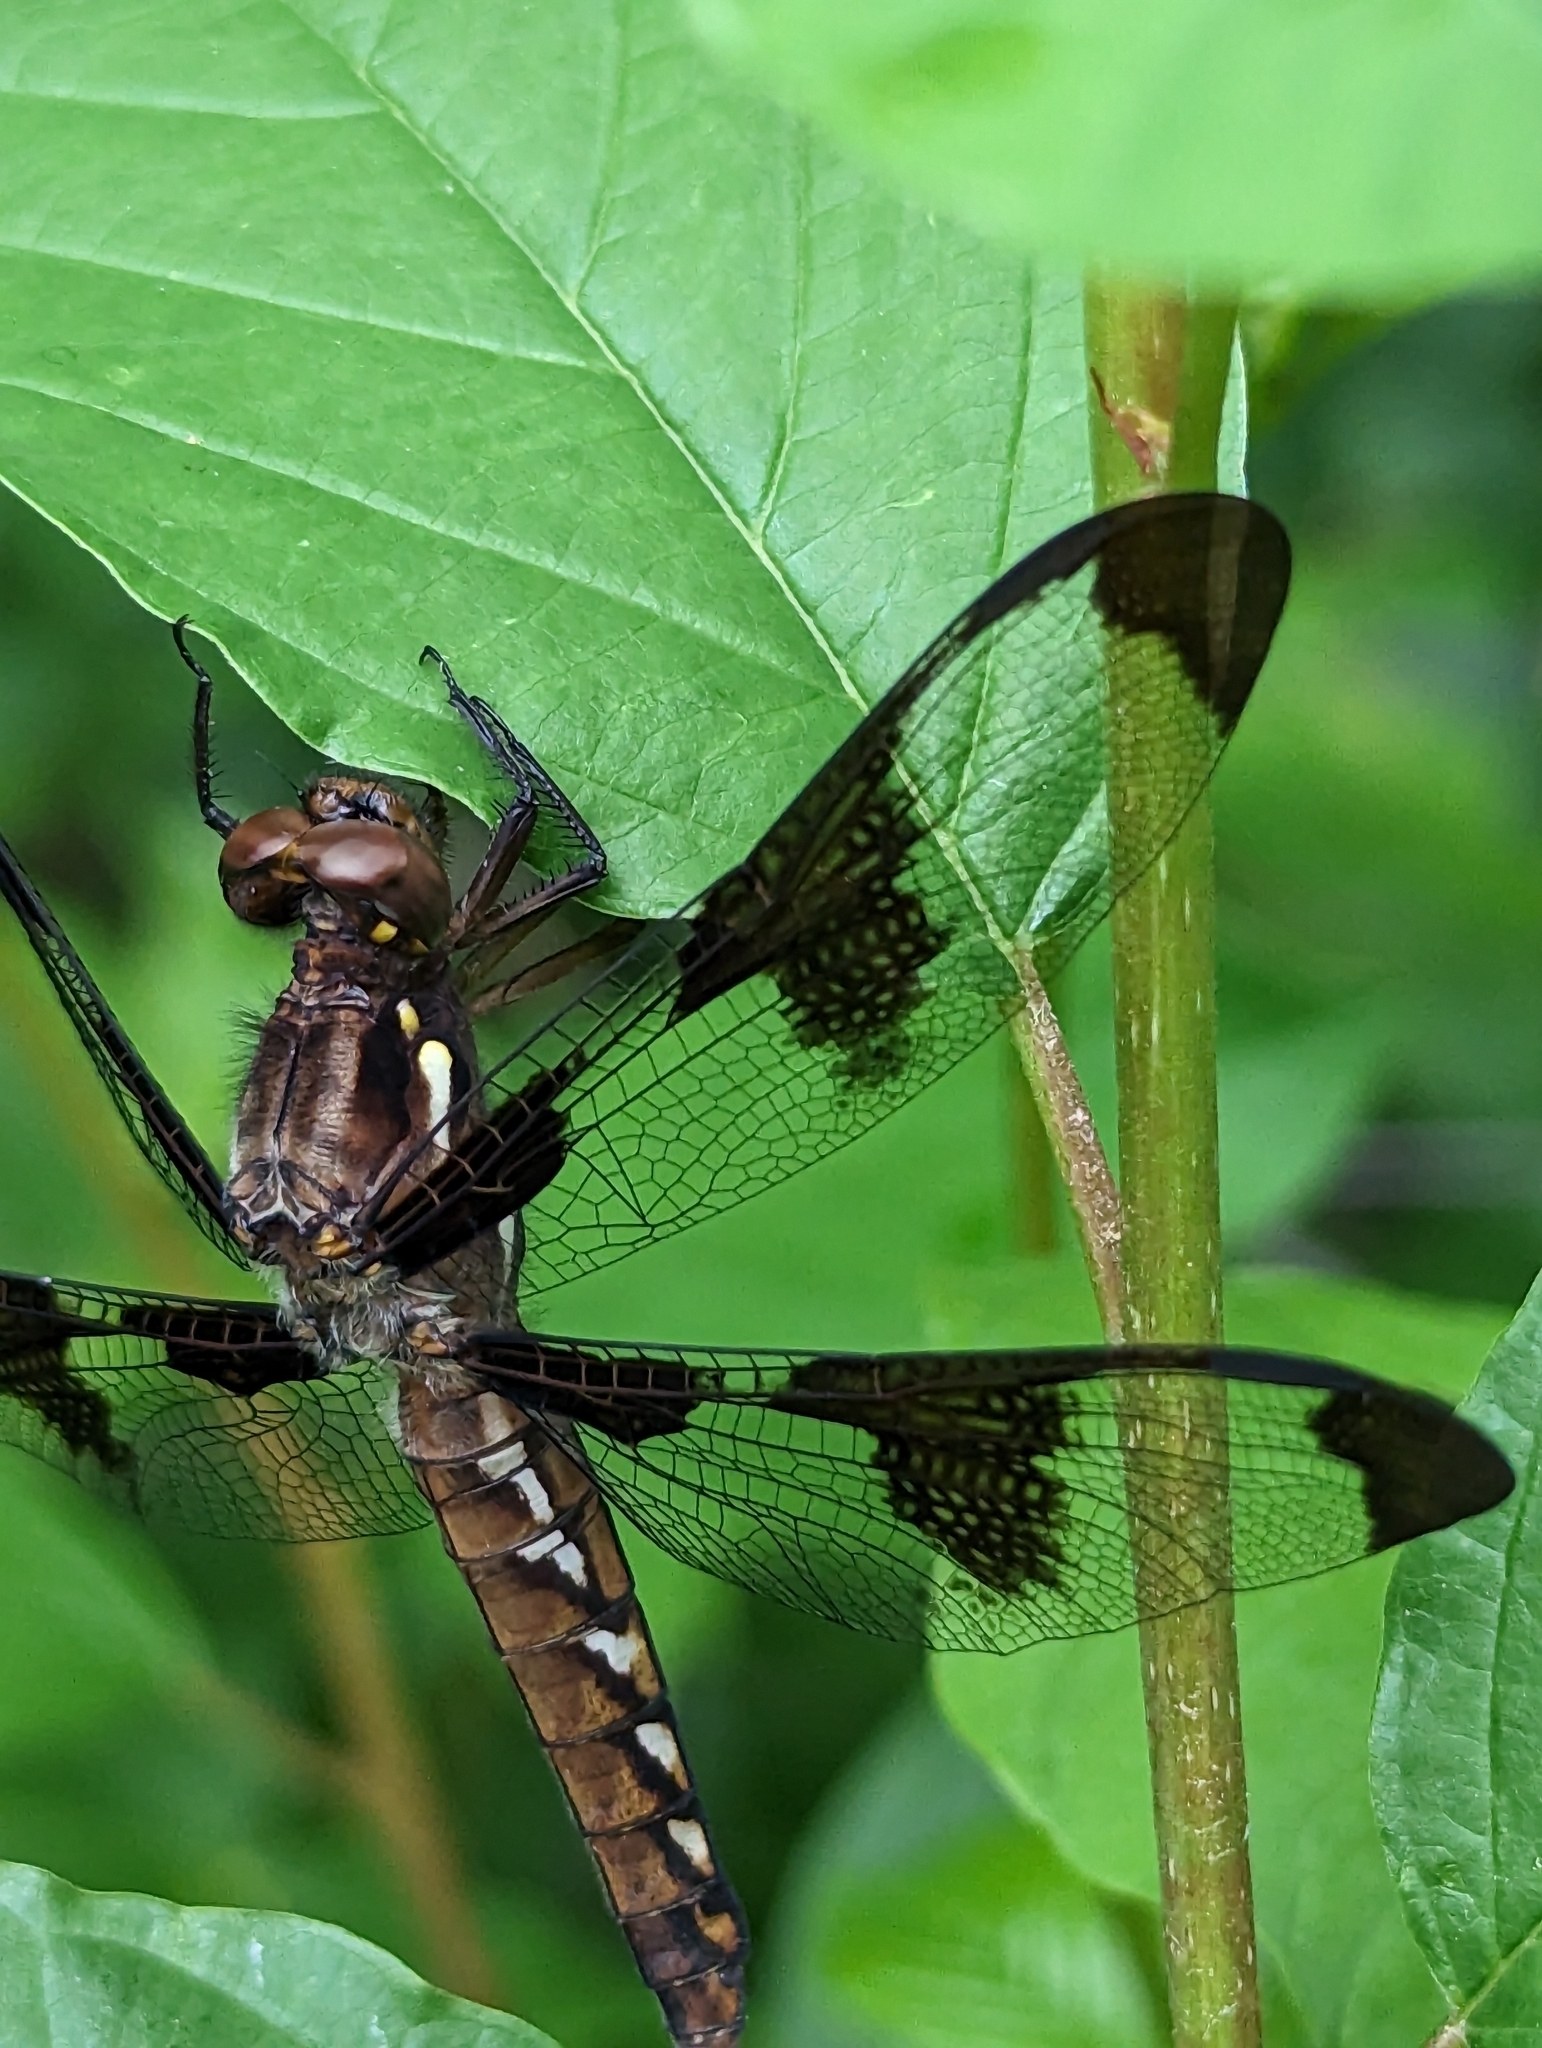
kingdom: Animalia
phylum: Arthropoda
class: Insecta
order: Odonata
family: Libellulidae
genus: Plathemis
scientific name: Plathemis lydia
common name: Common whitetail
